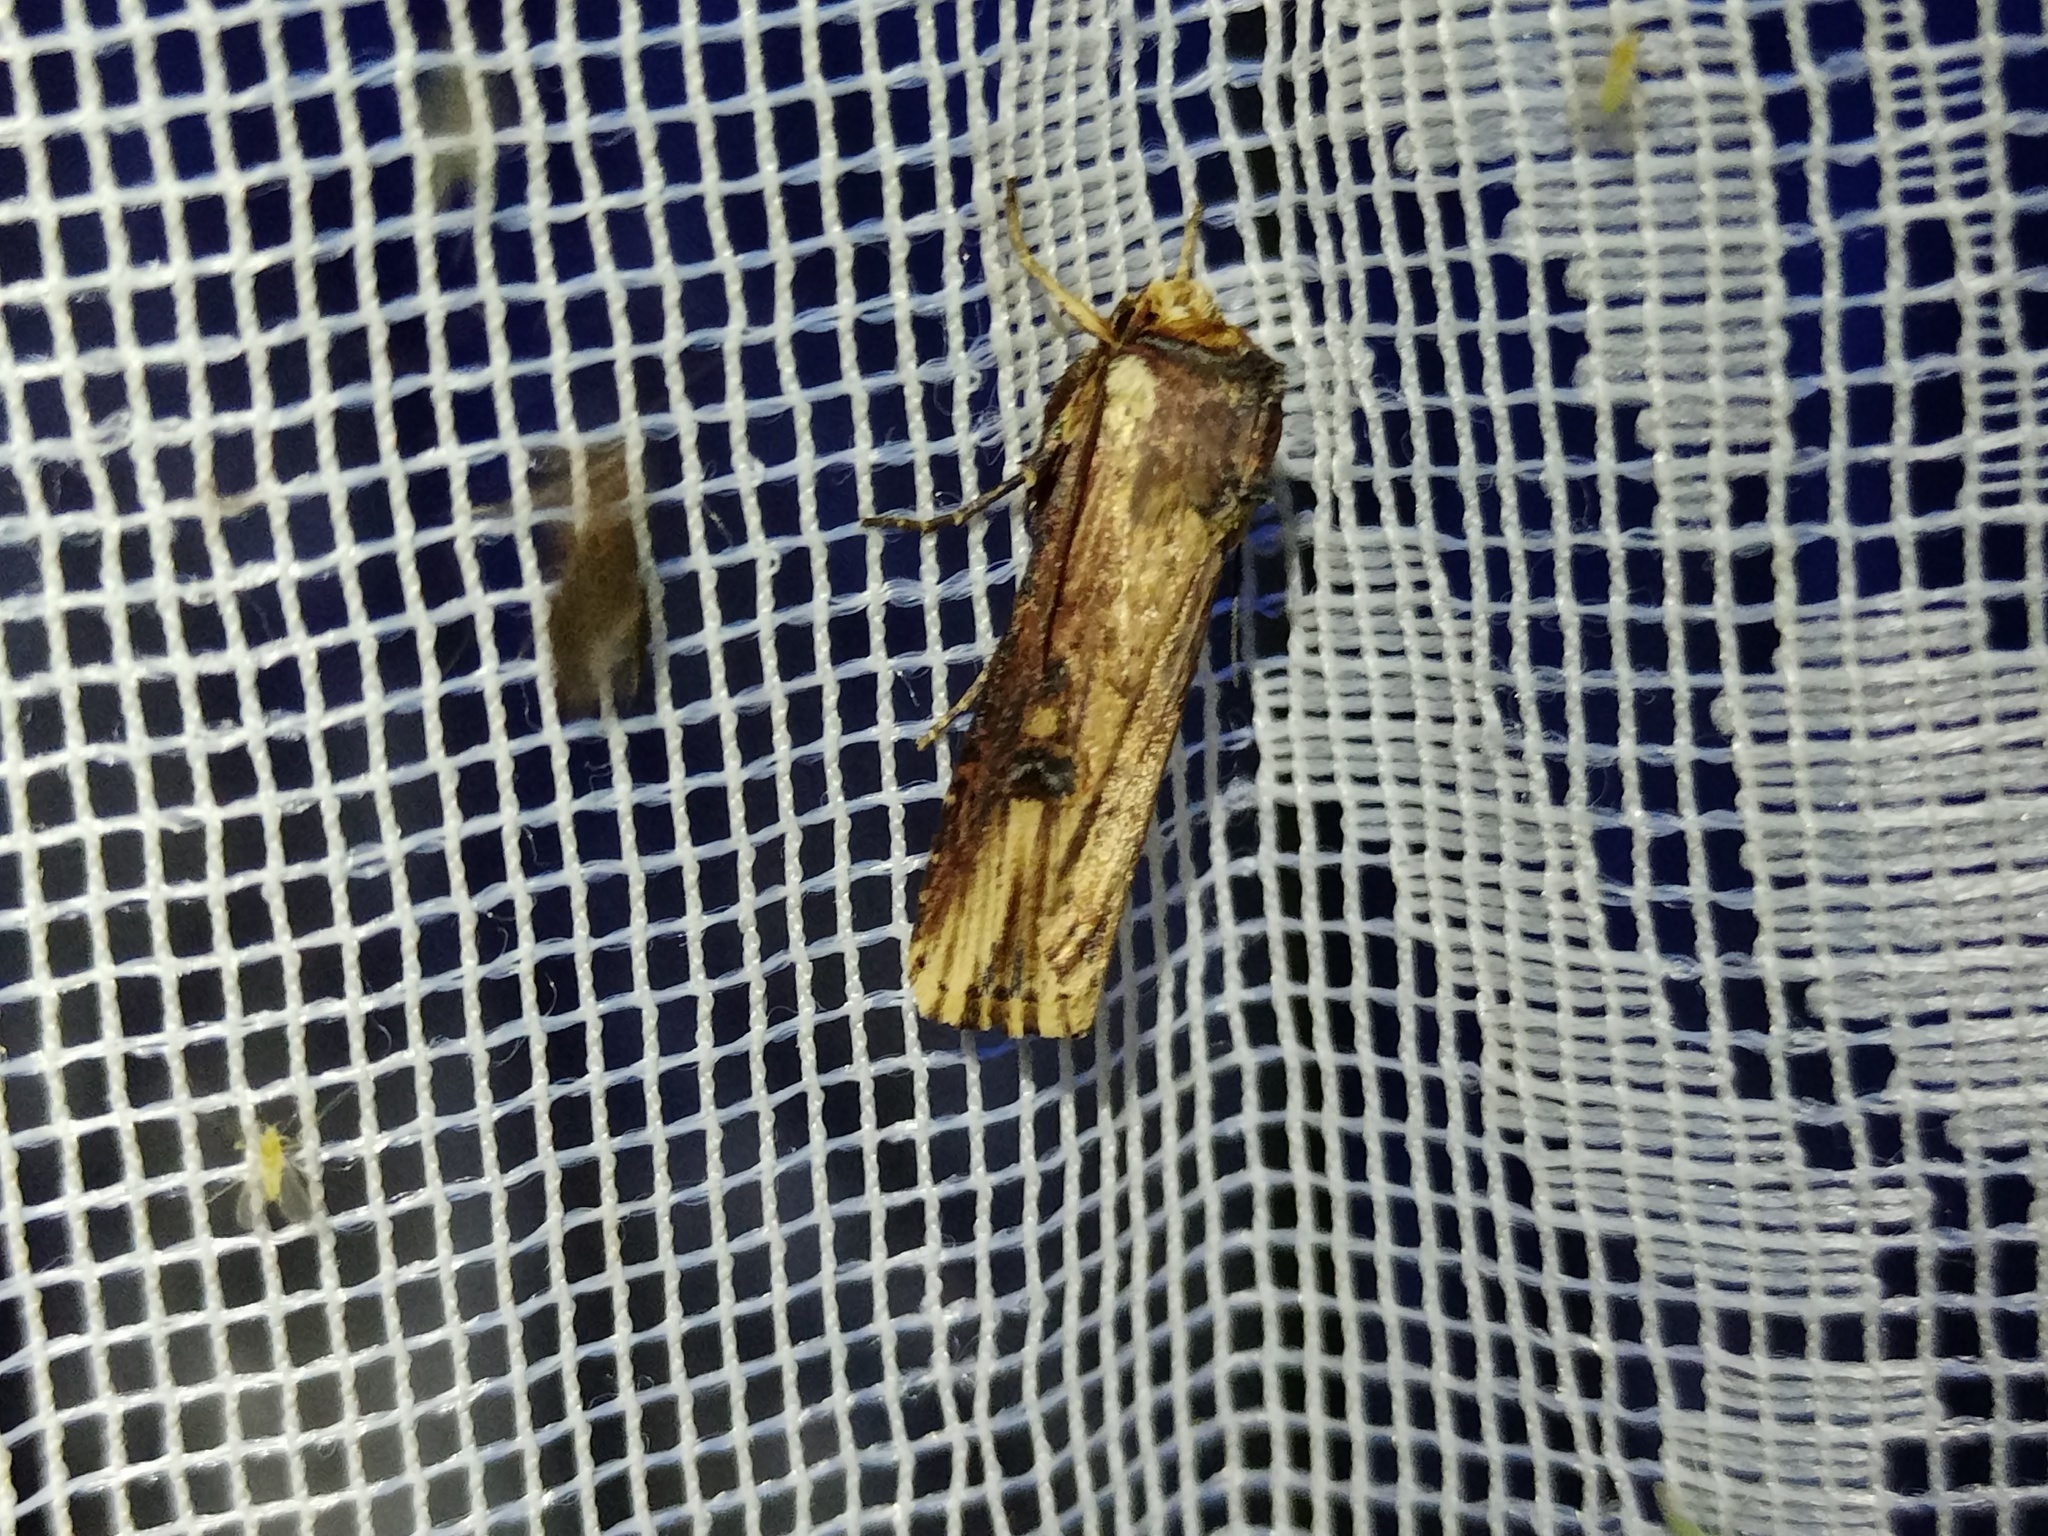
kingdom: Animalia
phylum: Arthropoda
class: Insecta
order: Lepidoptera
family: Noctuidae
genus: Axylia
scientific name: Axylia putris
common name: Flame
